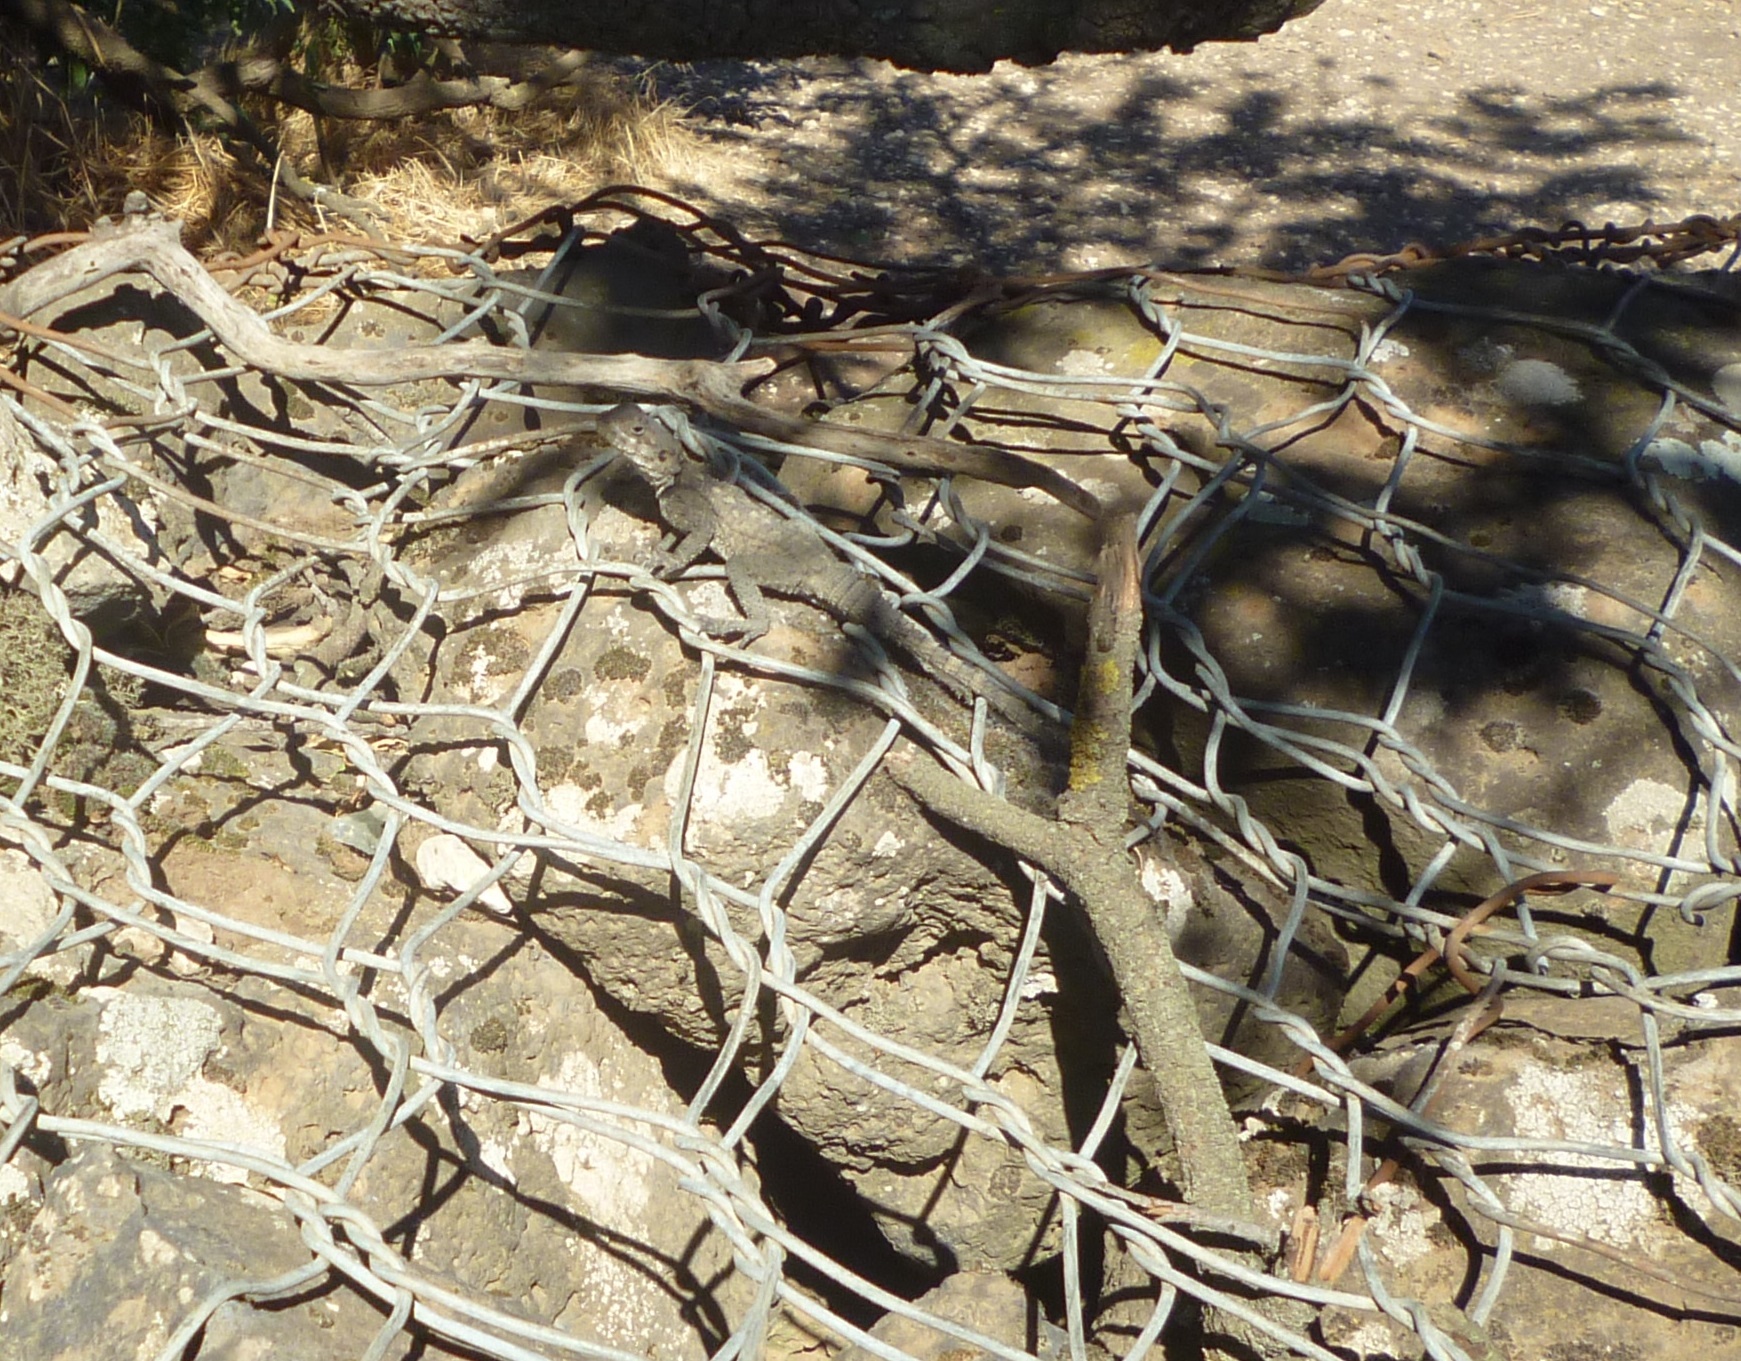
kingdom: Animalia
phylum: Chordata
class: Squamata
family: Agamidae
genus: Laudakia
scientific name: Laudakia vulgaris
